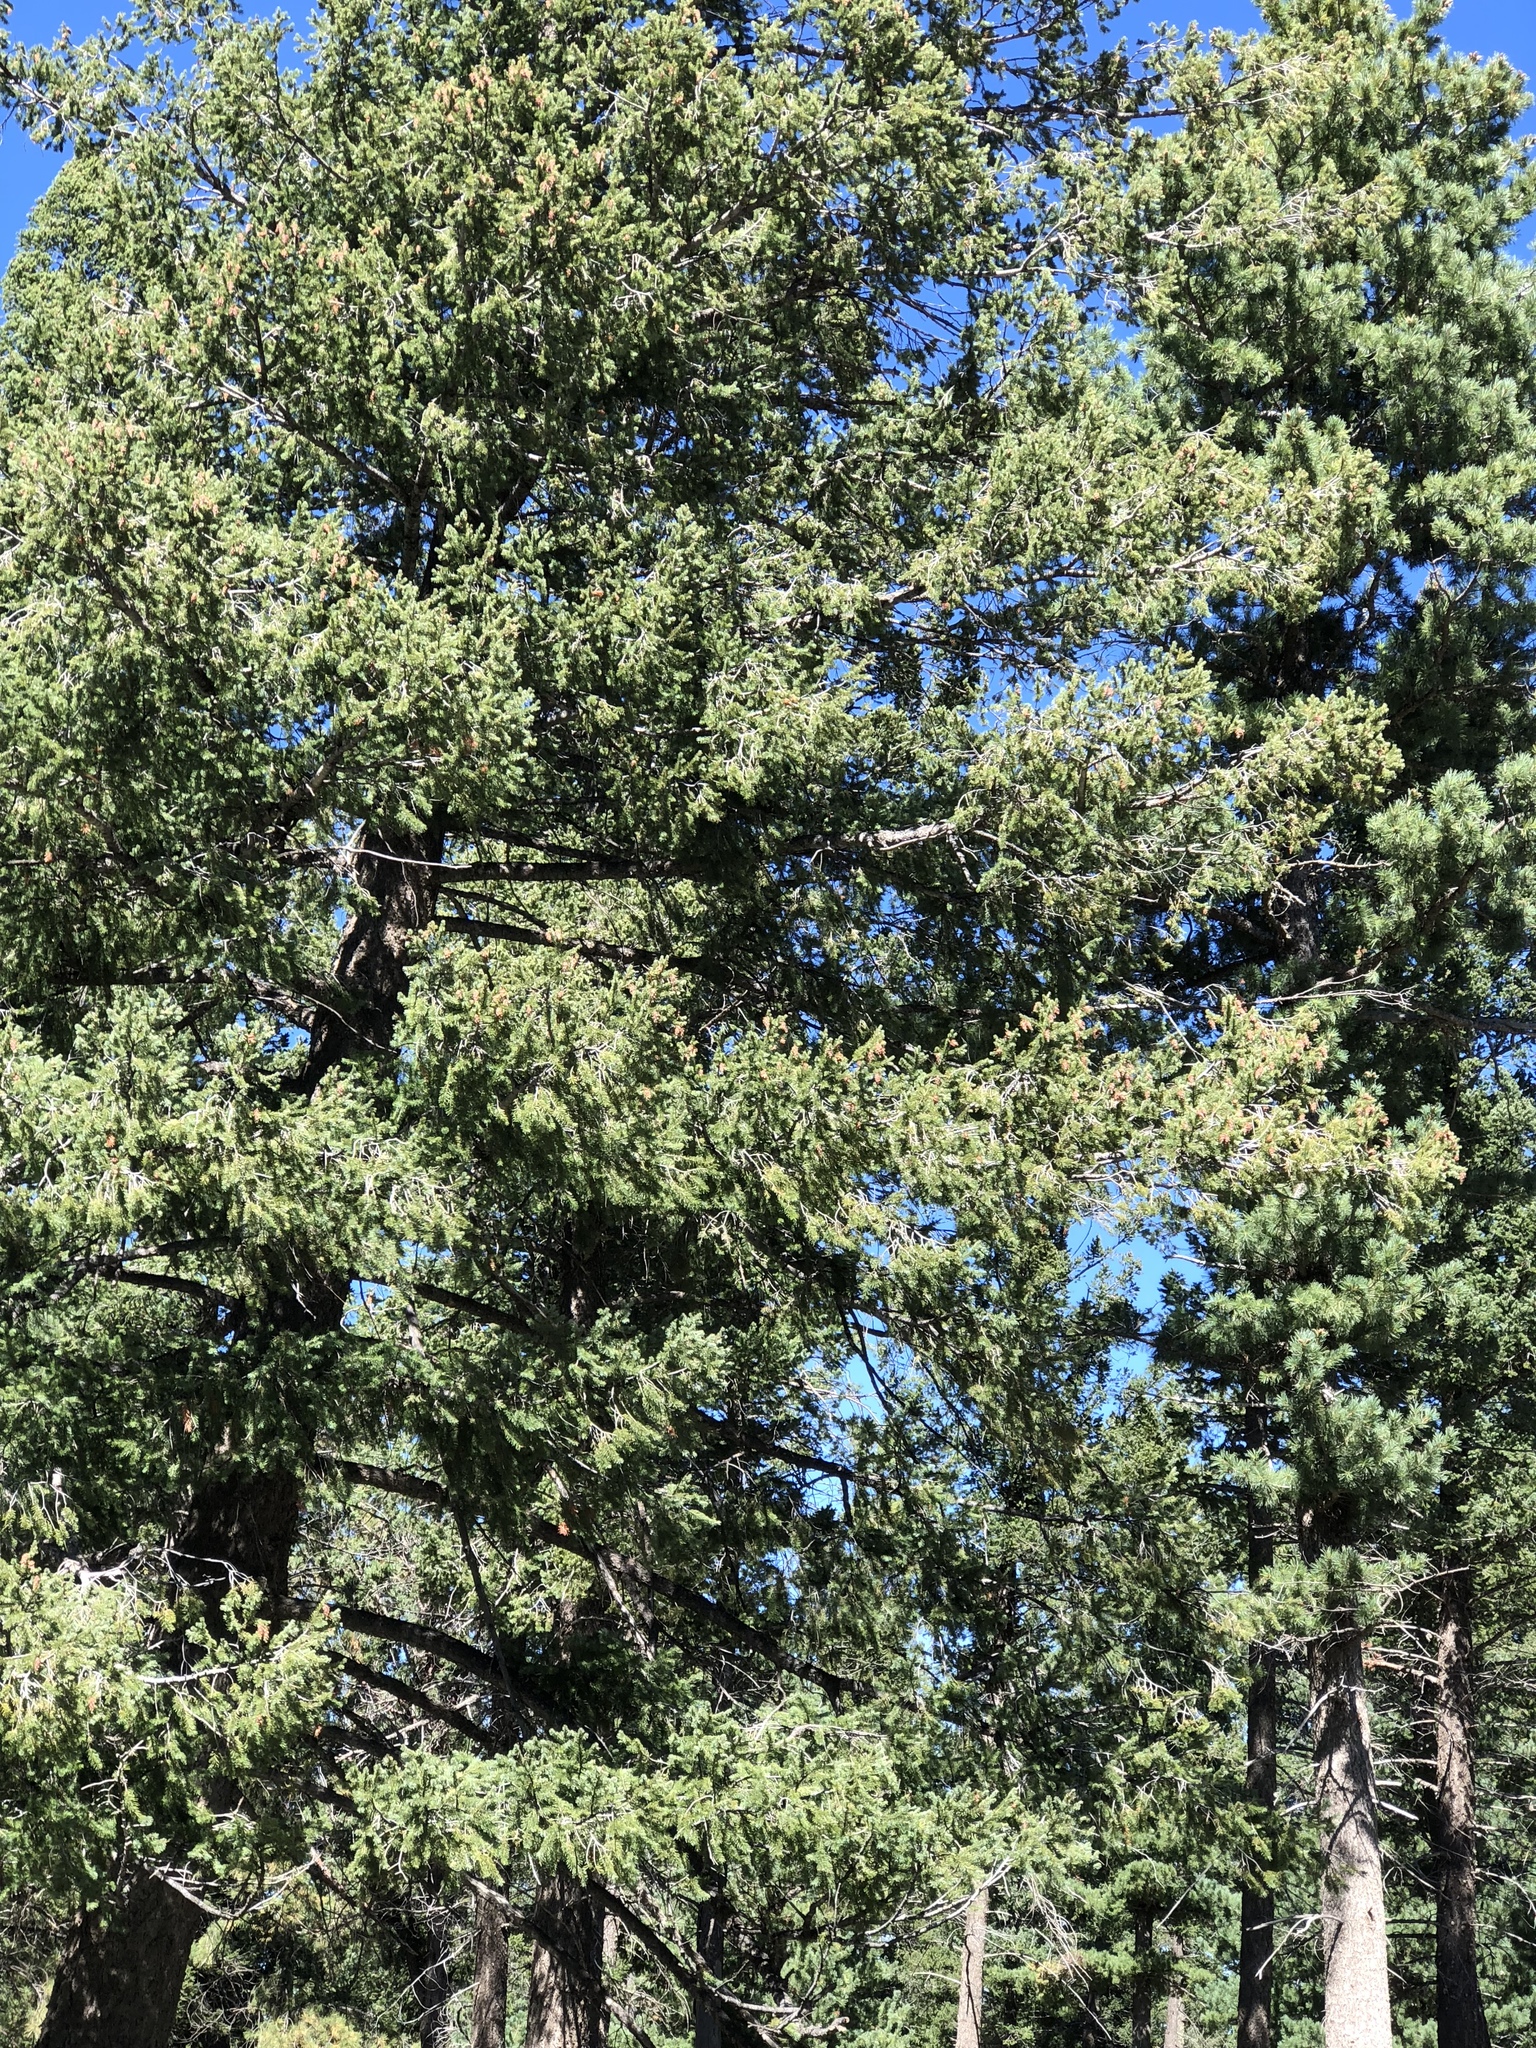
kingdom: Plantae
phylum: Tracheophyta
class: Pinopsida
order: Pinales
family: Pinaceae
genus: Pseudotsuga
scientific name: Pseudotsuga menziesii
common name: Douglas fir
